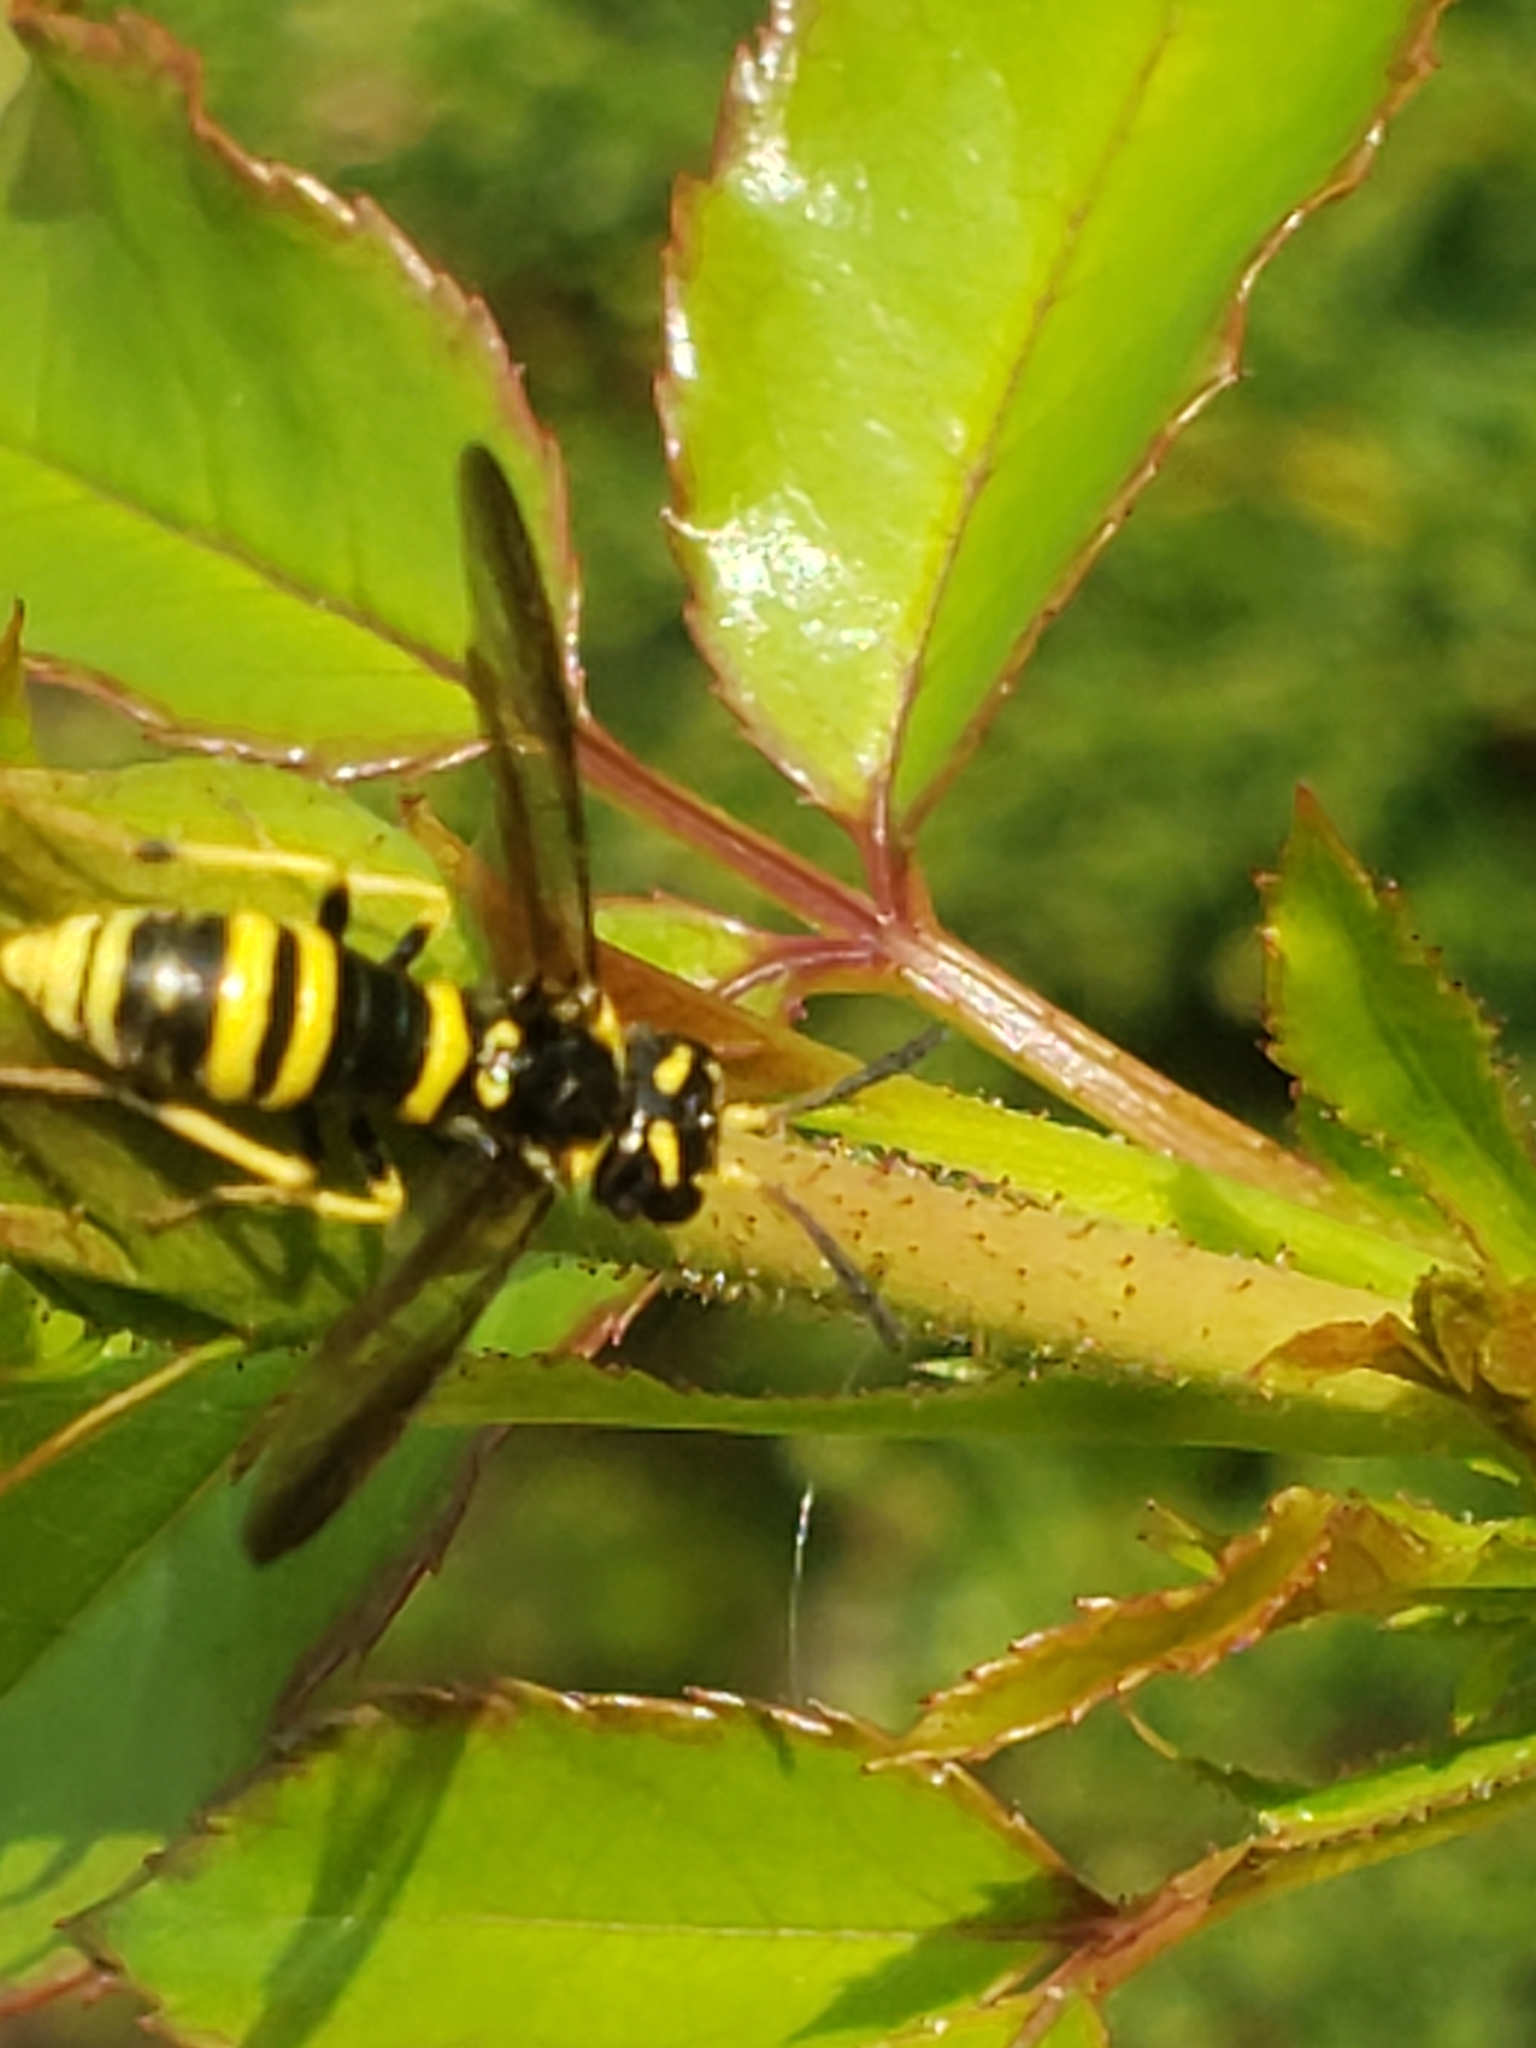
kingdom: Animalia
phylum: Arthropoda
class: Insecta
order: Hymenoptera
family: Tenthredinidae
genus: Allantus
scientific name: Allantus viennensis
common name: Sawfly
